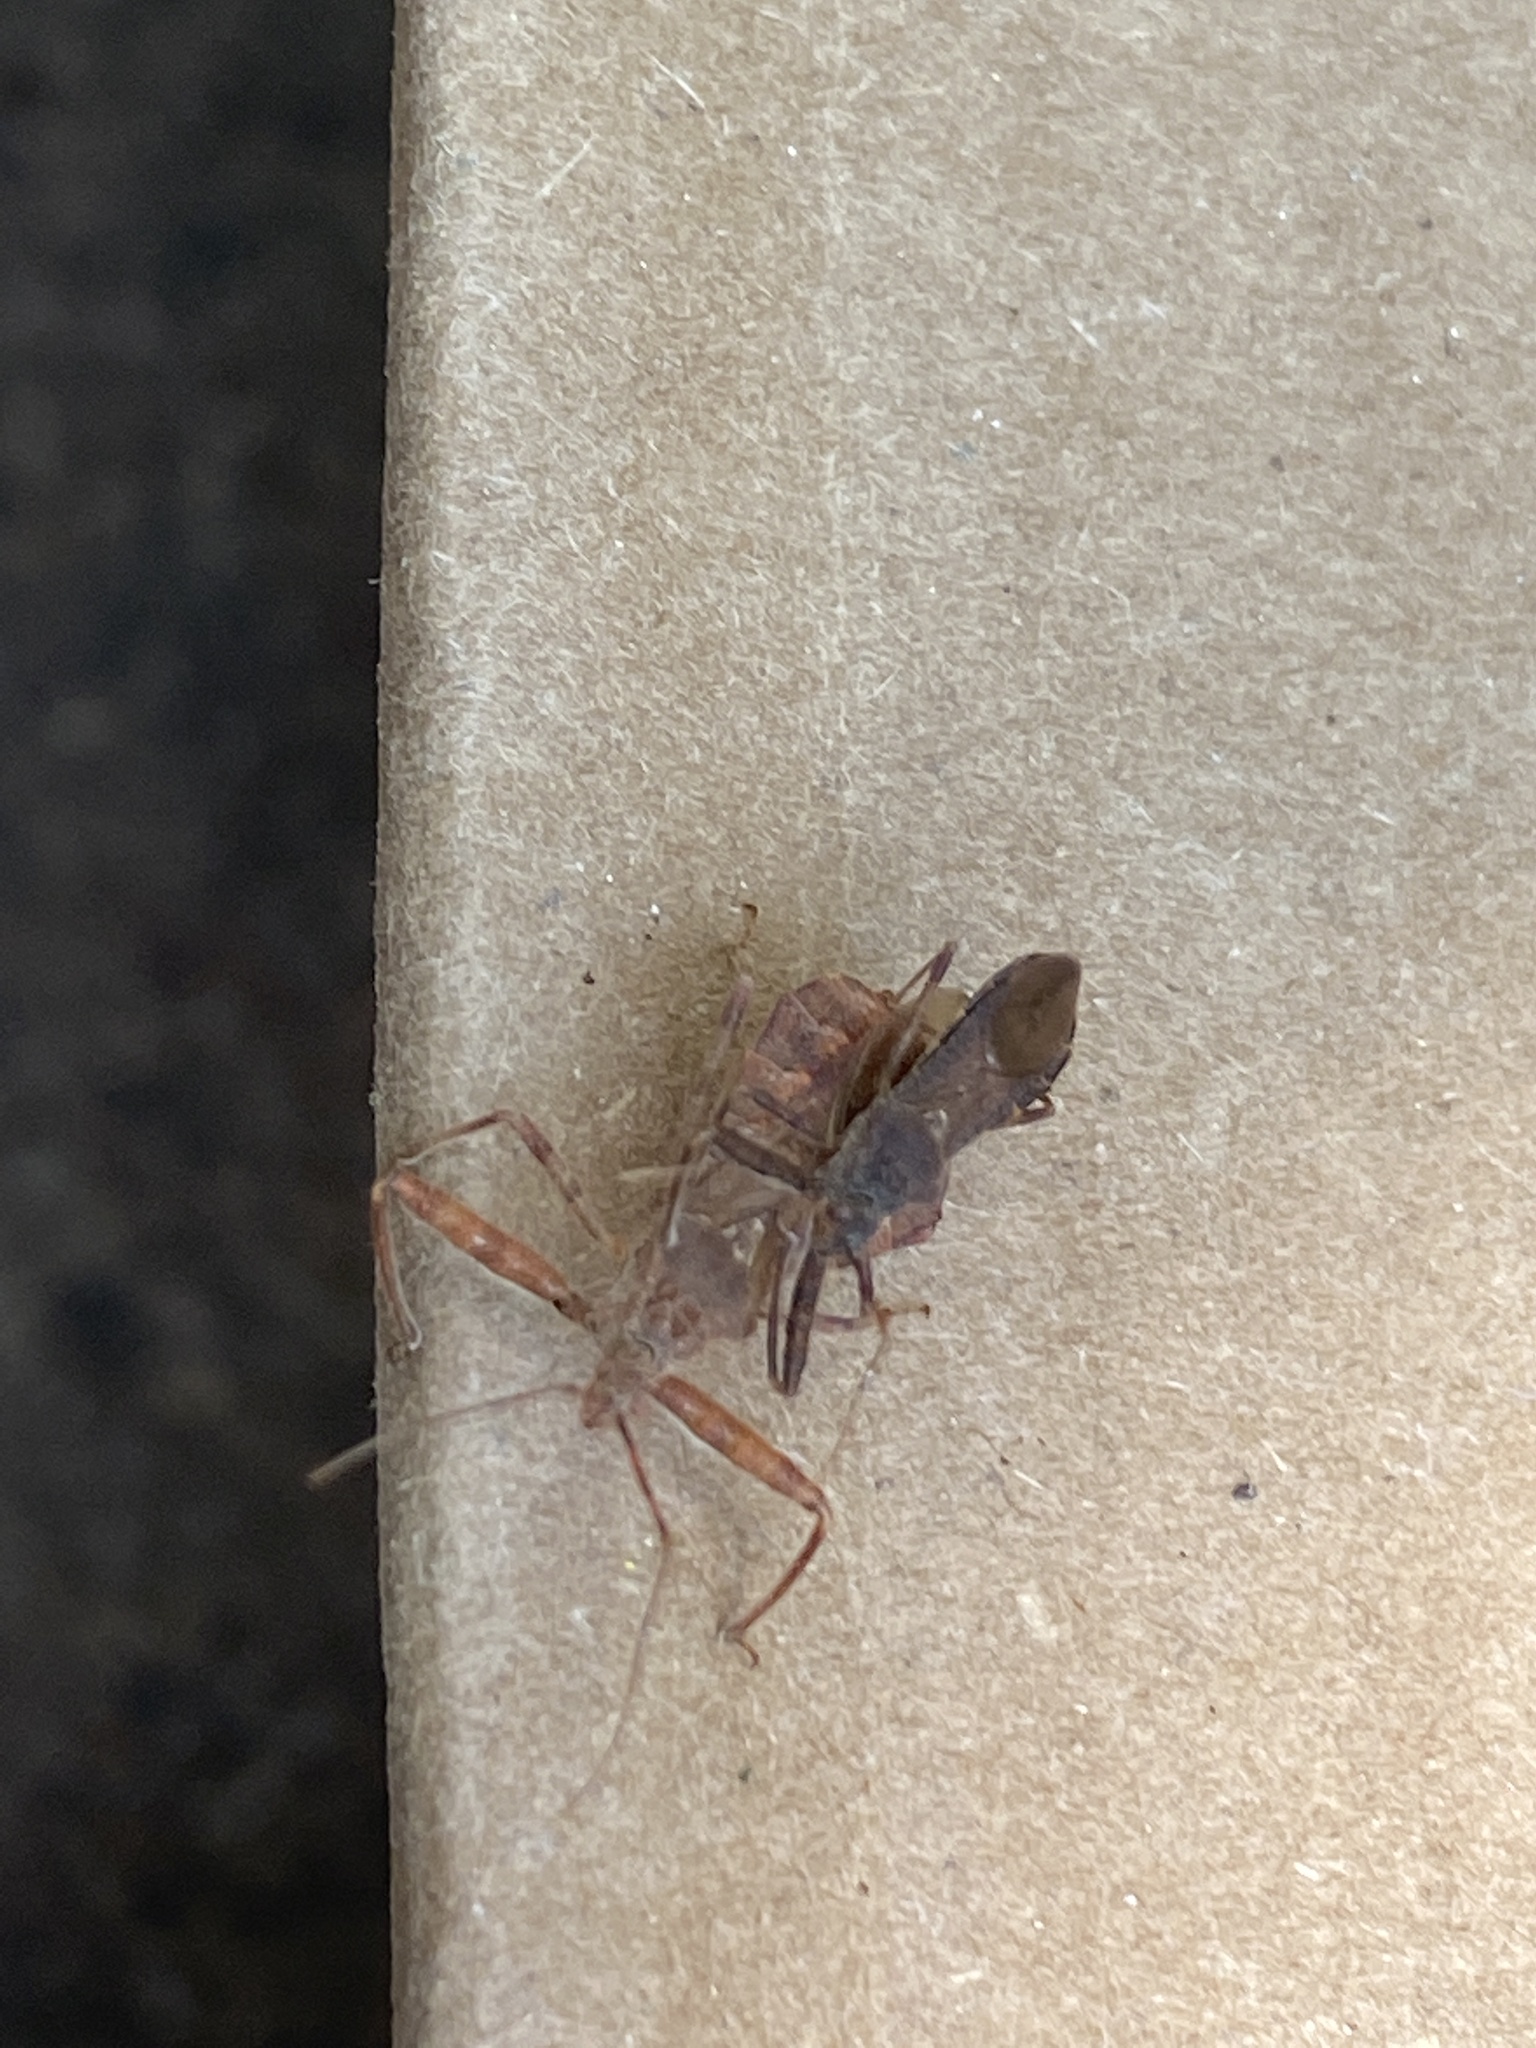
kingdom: Animalia
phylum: Arthropoda
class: Insecta
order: Hemiptera
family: Reduviidae
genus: Acholla
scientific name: Acholla multispinosa
